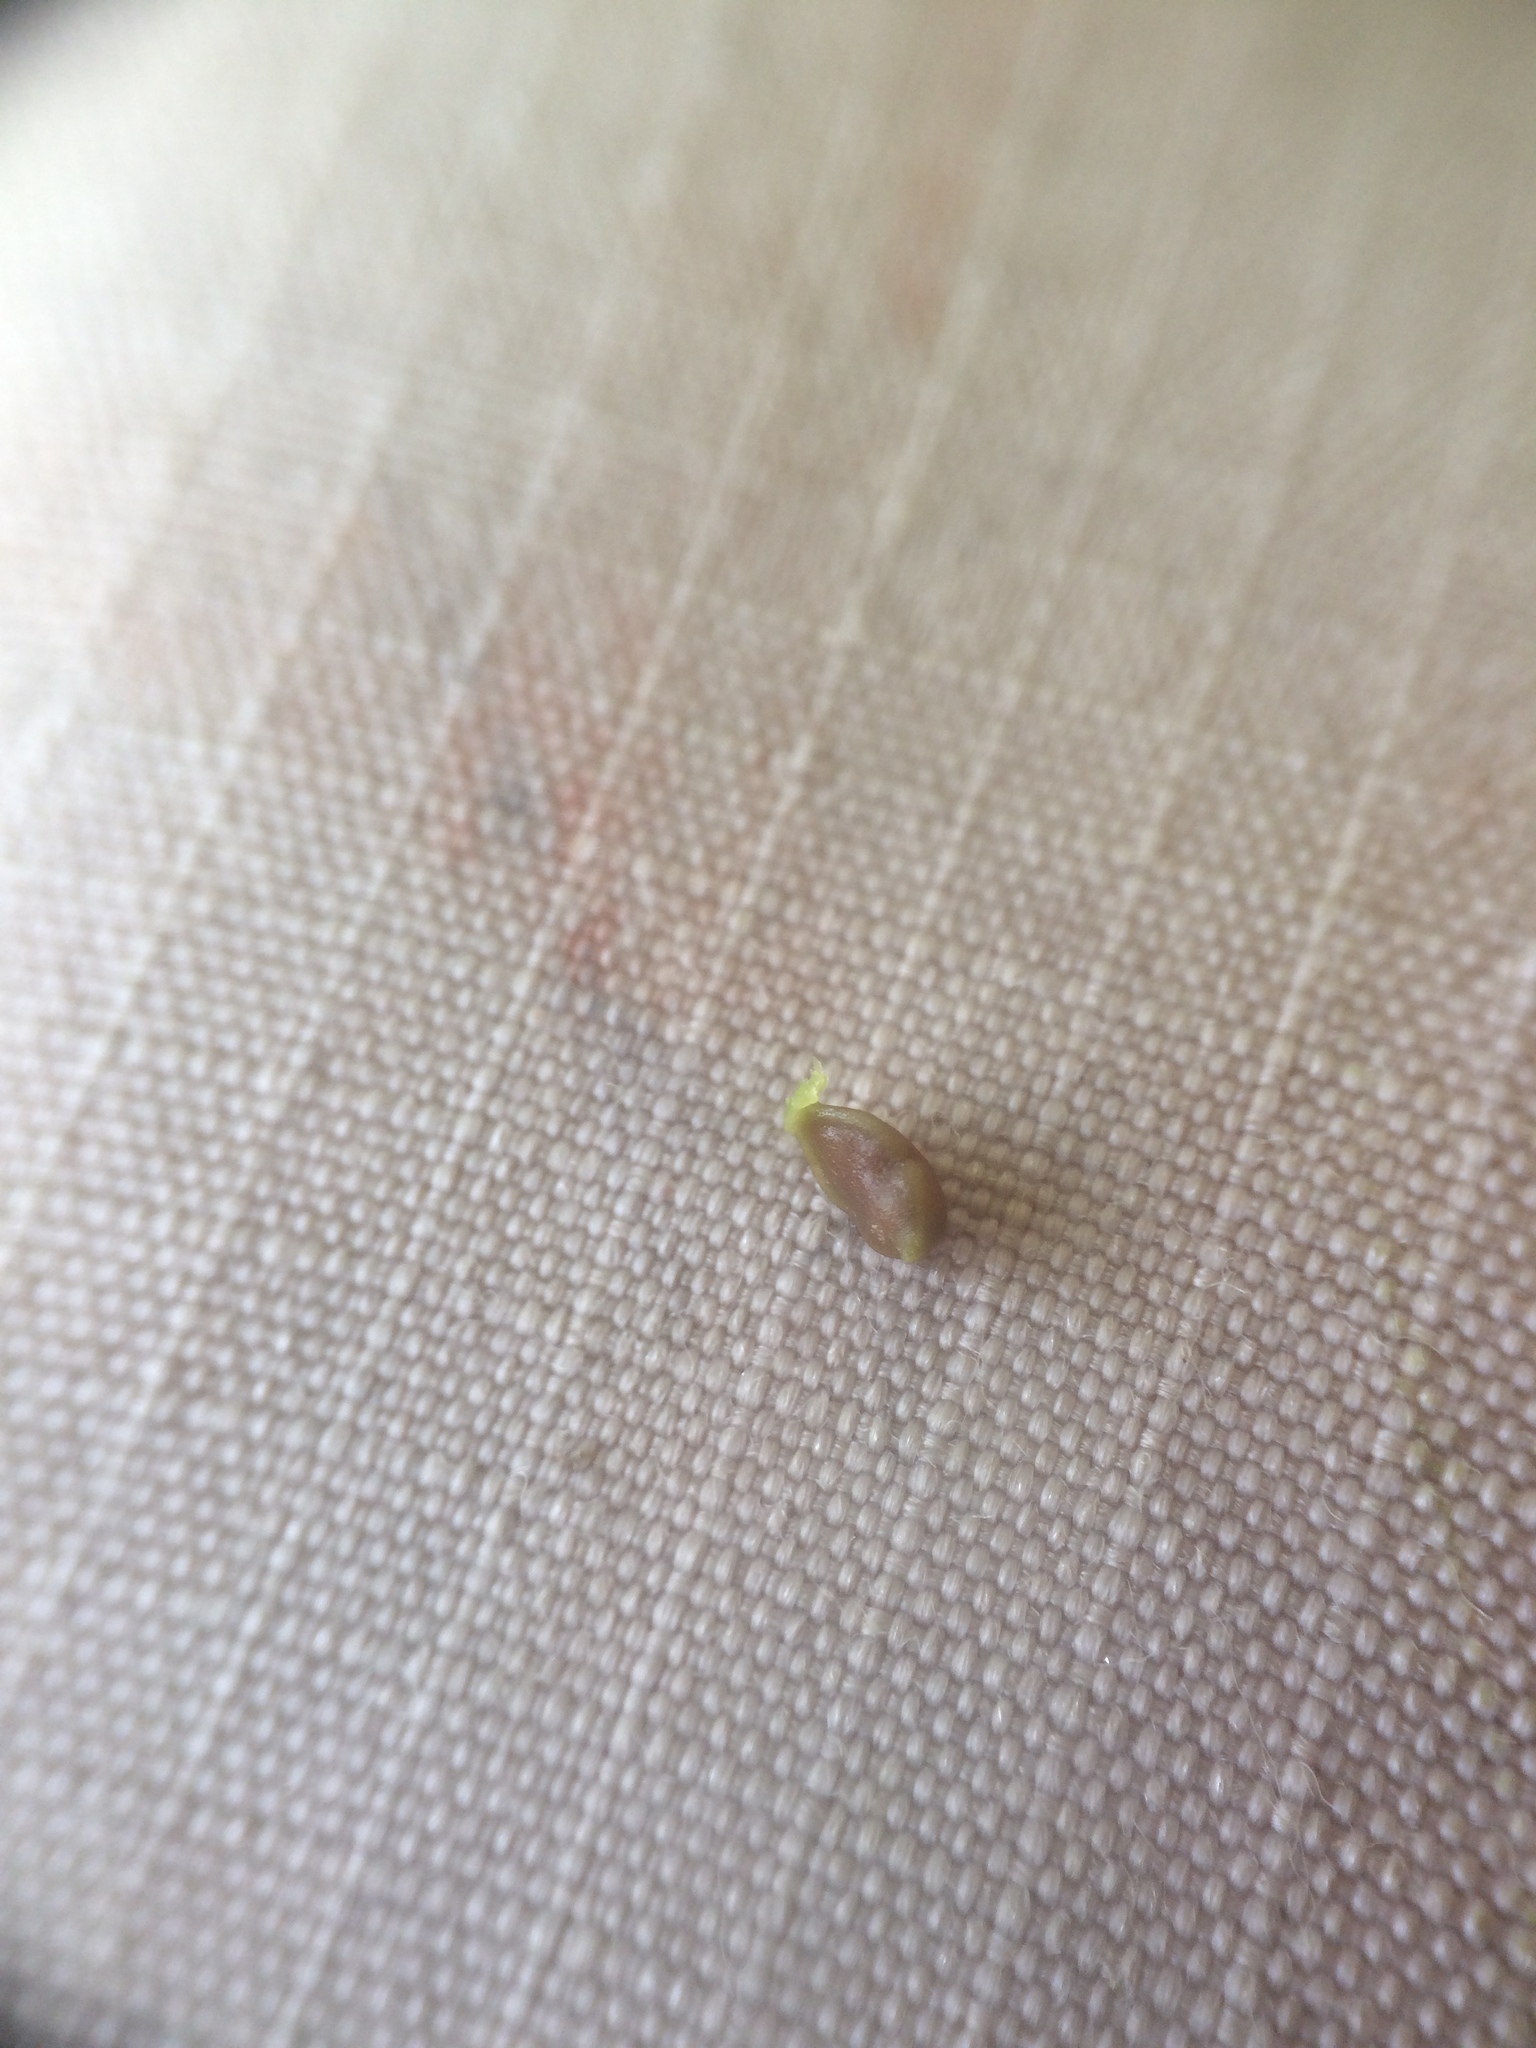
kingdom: Plantae
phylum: Tracheophyta
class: Liliopsida
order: Poales
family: Cyperaceae
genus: Carex
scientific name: Carex tuckermanii
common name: Tuckerman's sedge
